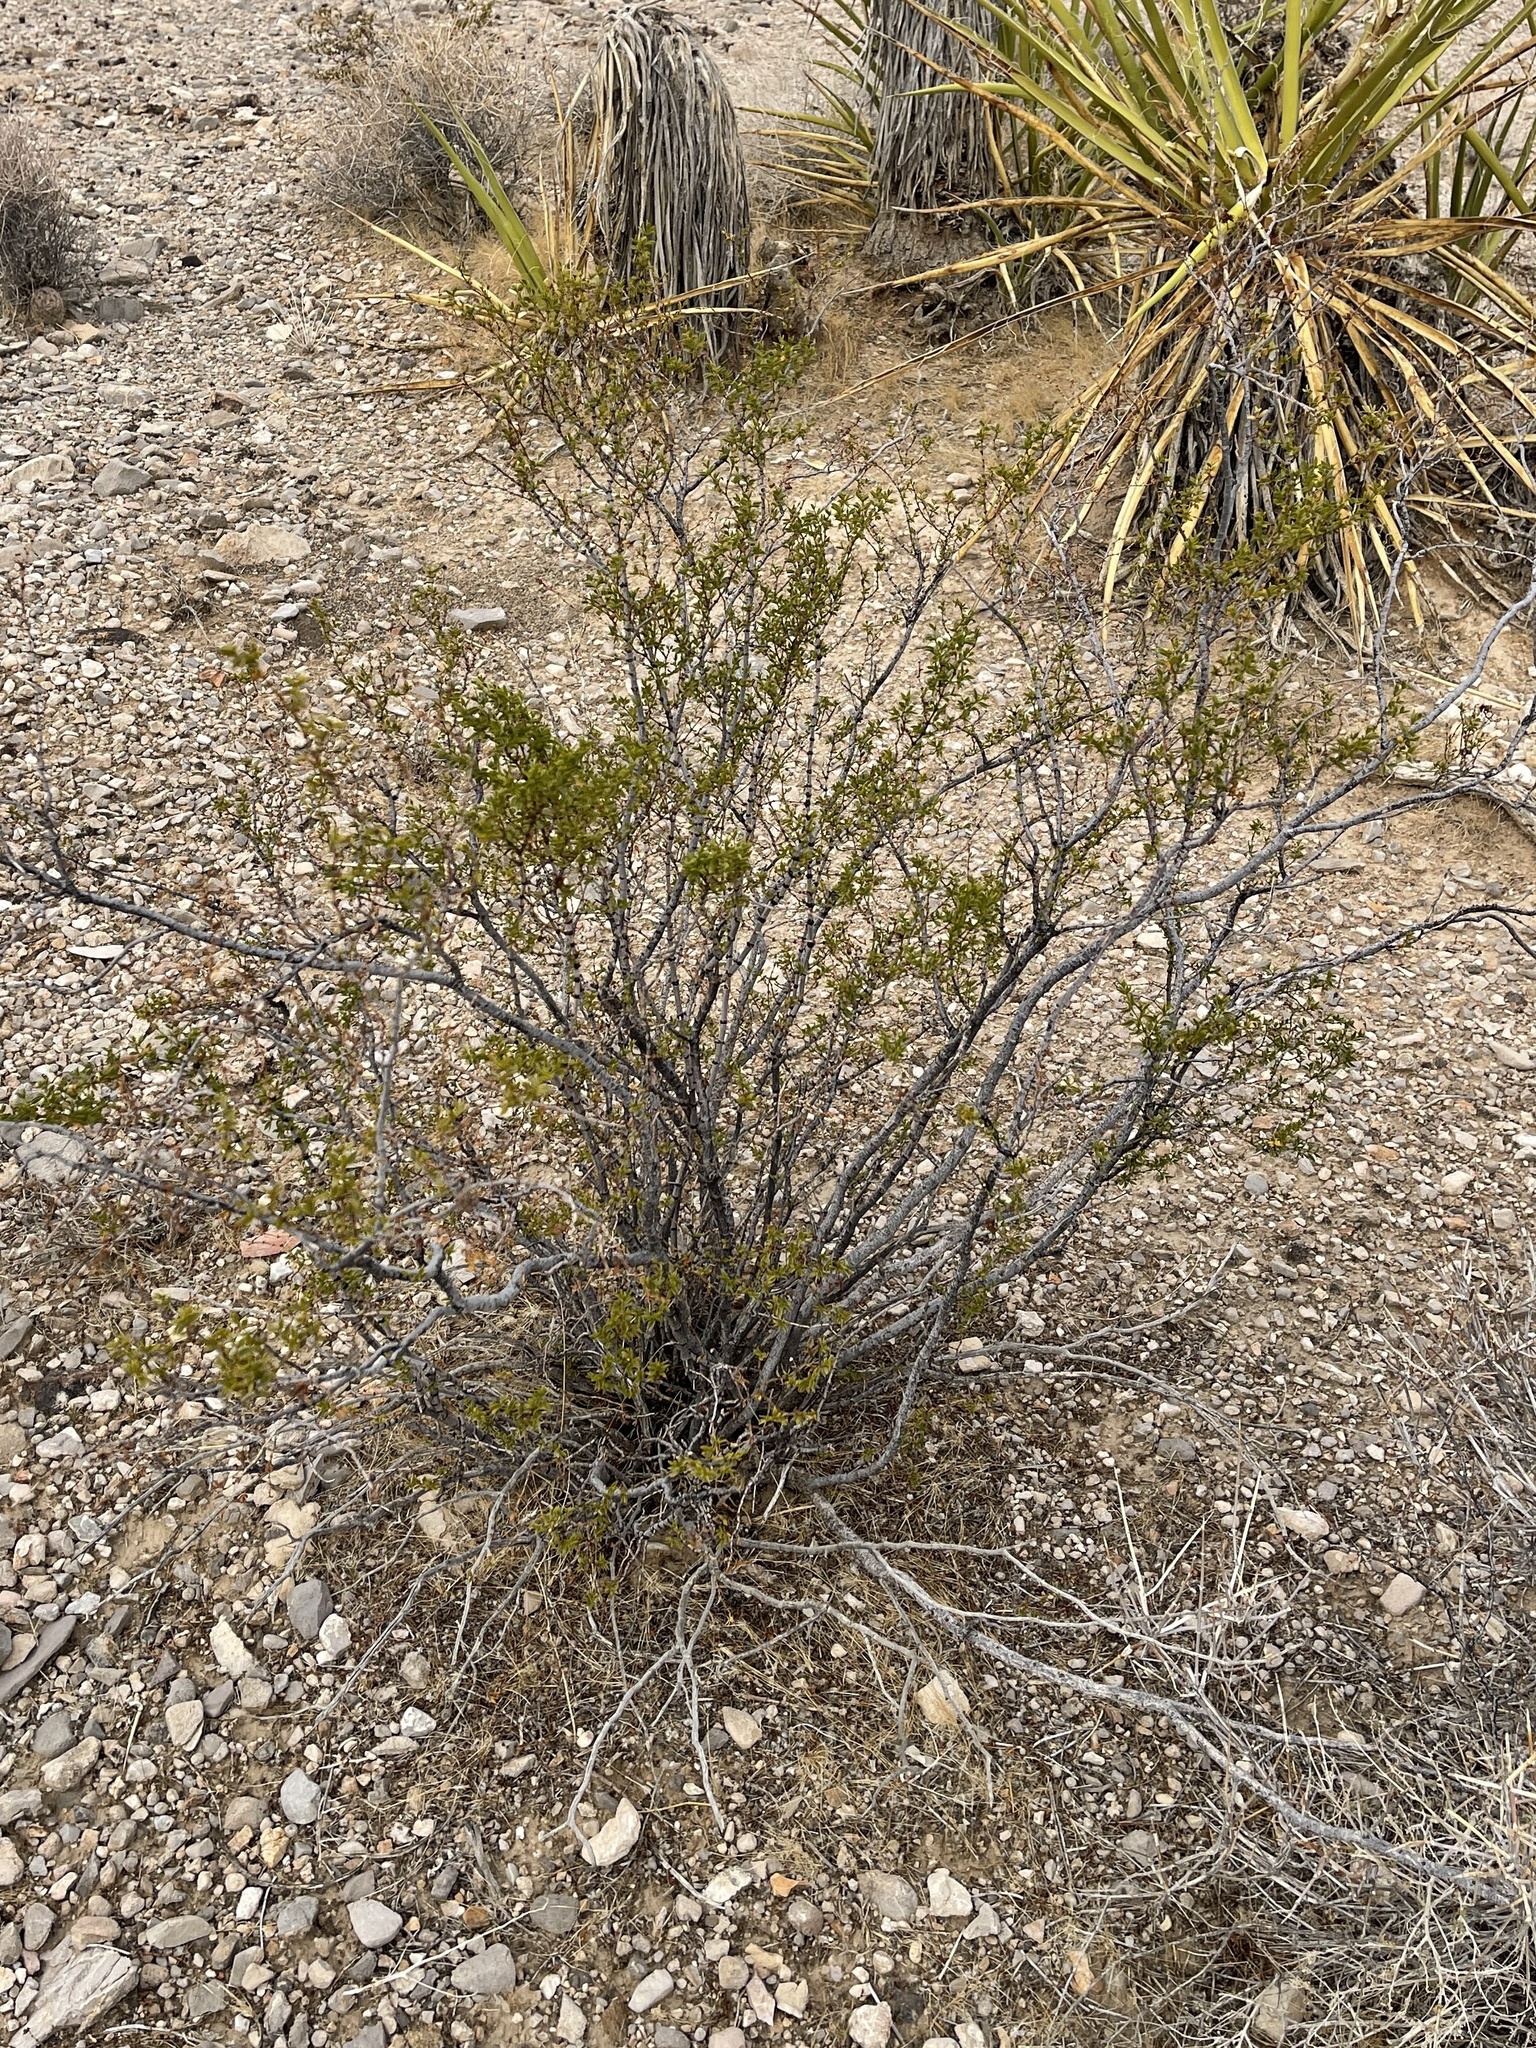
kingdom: Plantae
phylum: Tracheophyta
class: Magnoliopsida
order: Zygophyllales
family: Zygophyllaceae
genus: Larrea
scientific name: Larrea tridentata
